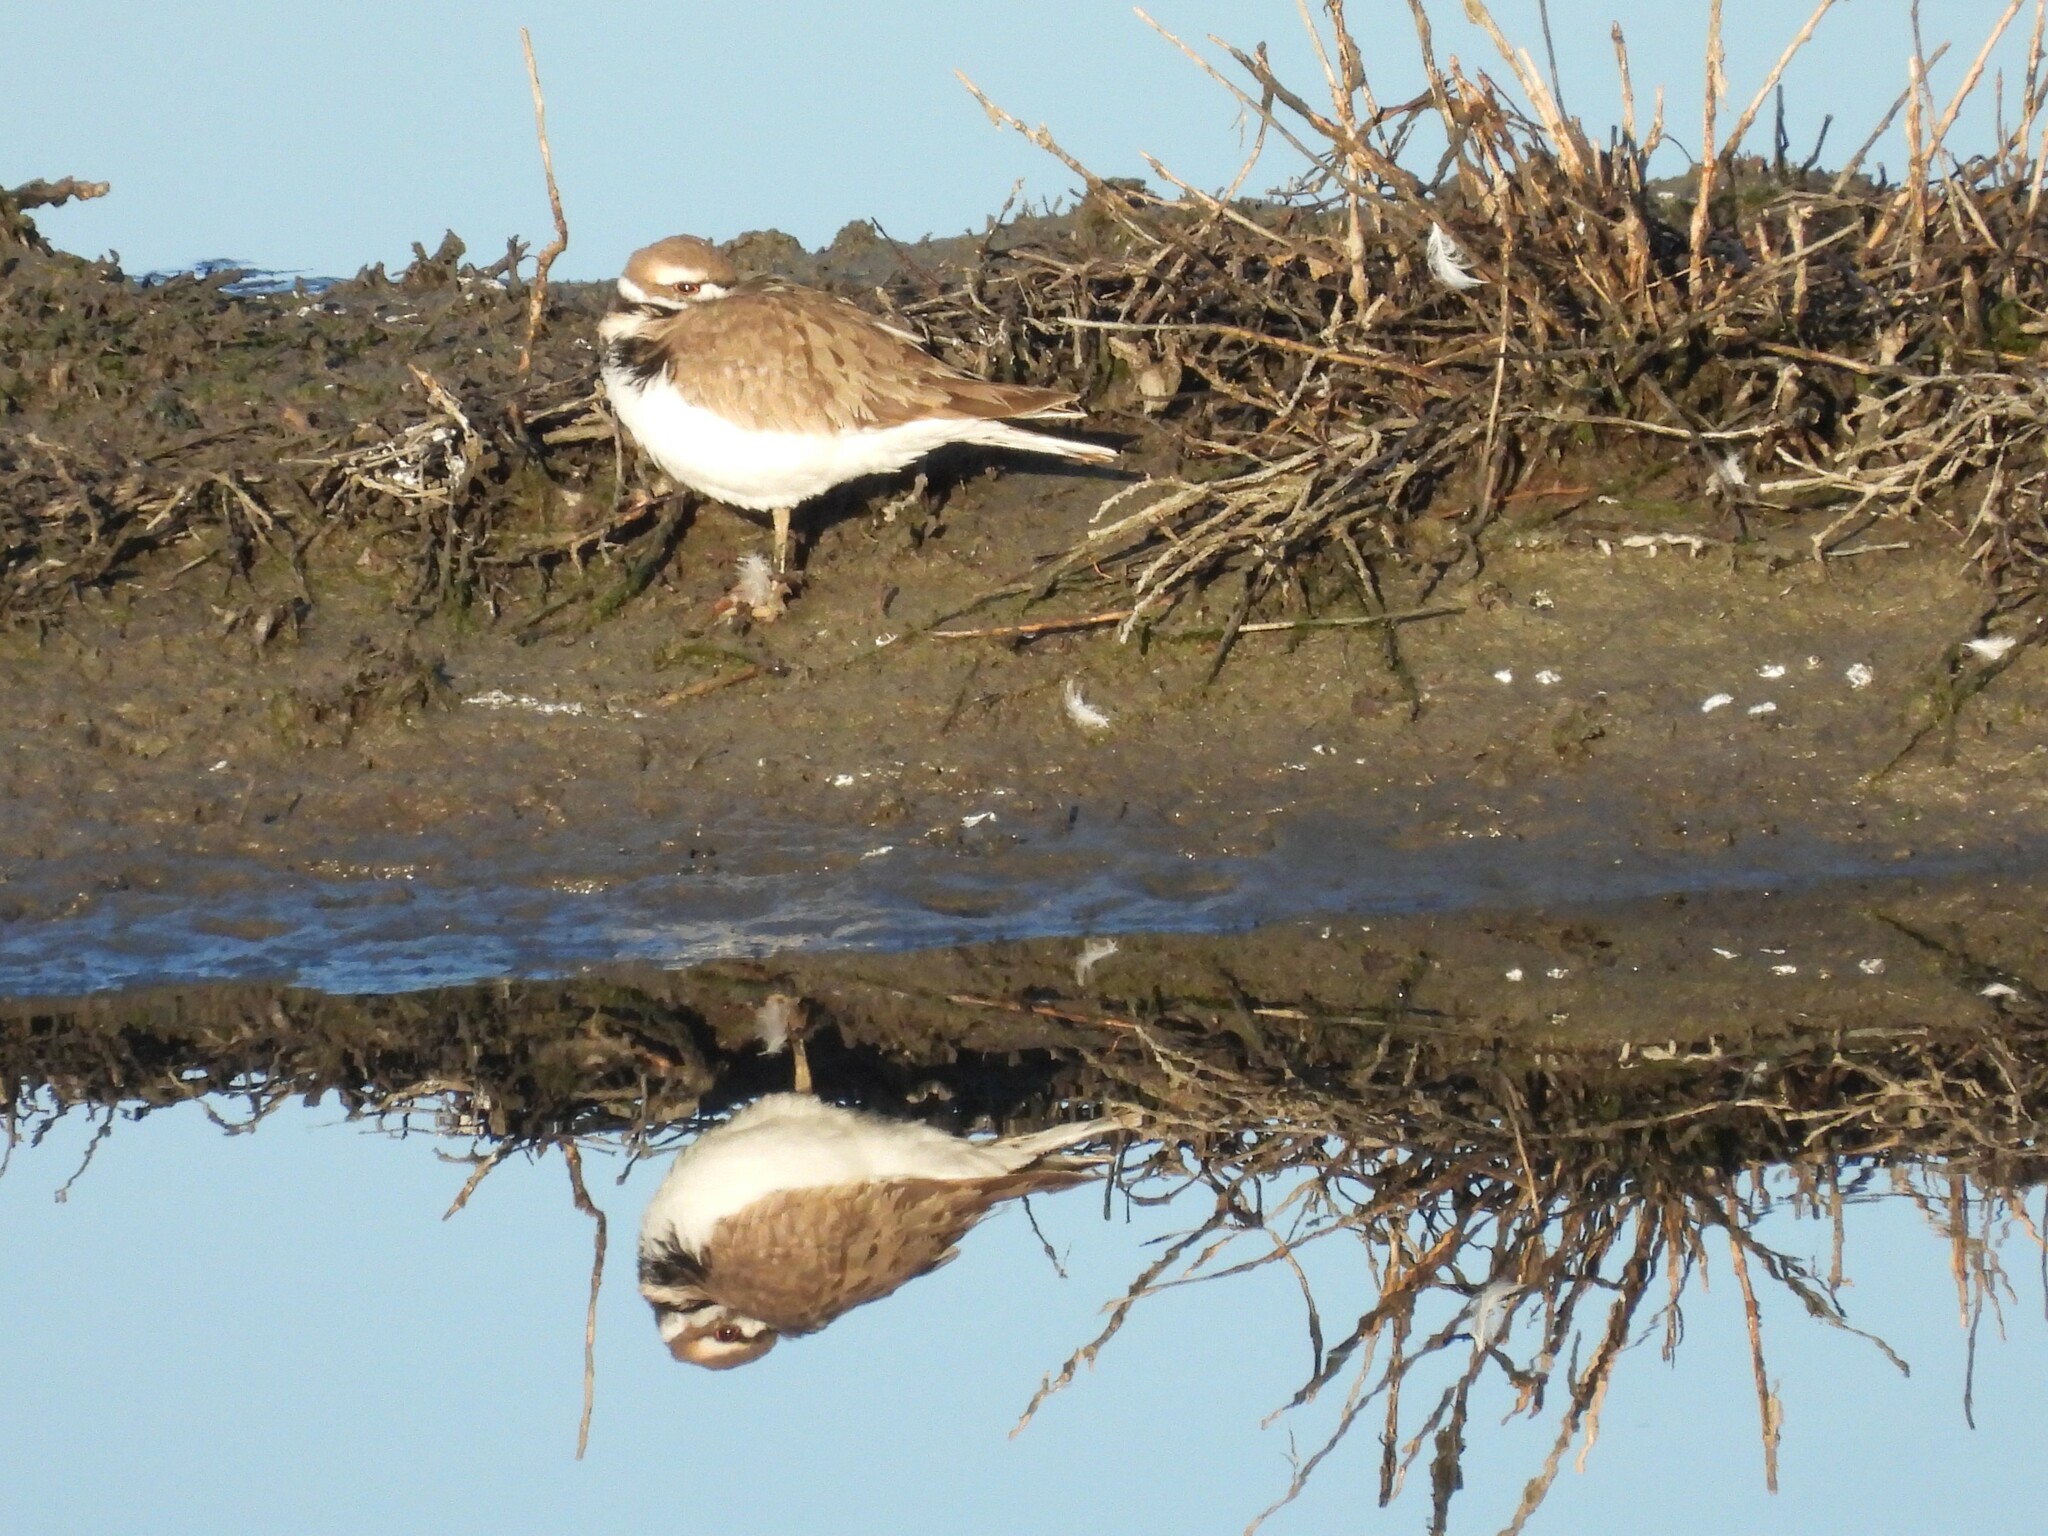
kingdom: Animalia
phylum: Chordata
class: Aves
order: Charadriiformes
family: Charadriidae
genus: Charadrius
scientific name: Charadrius vociferus
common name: Killdeer
